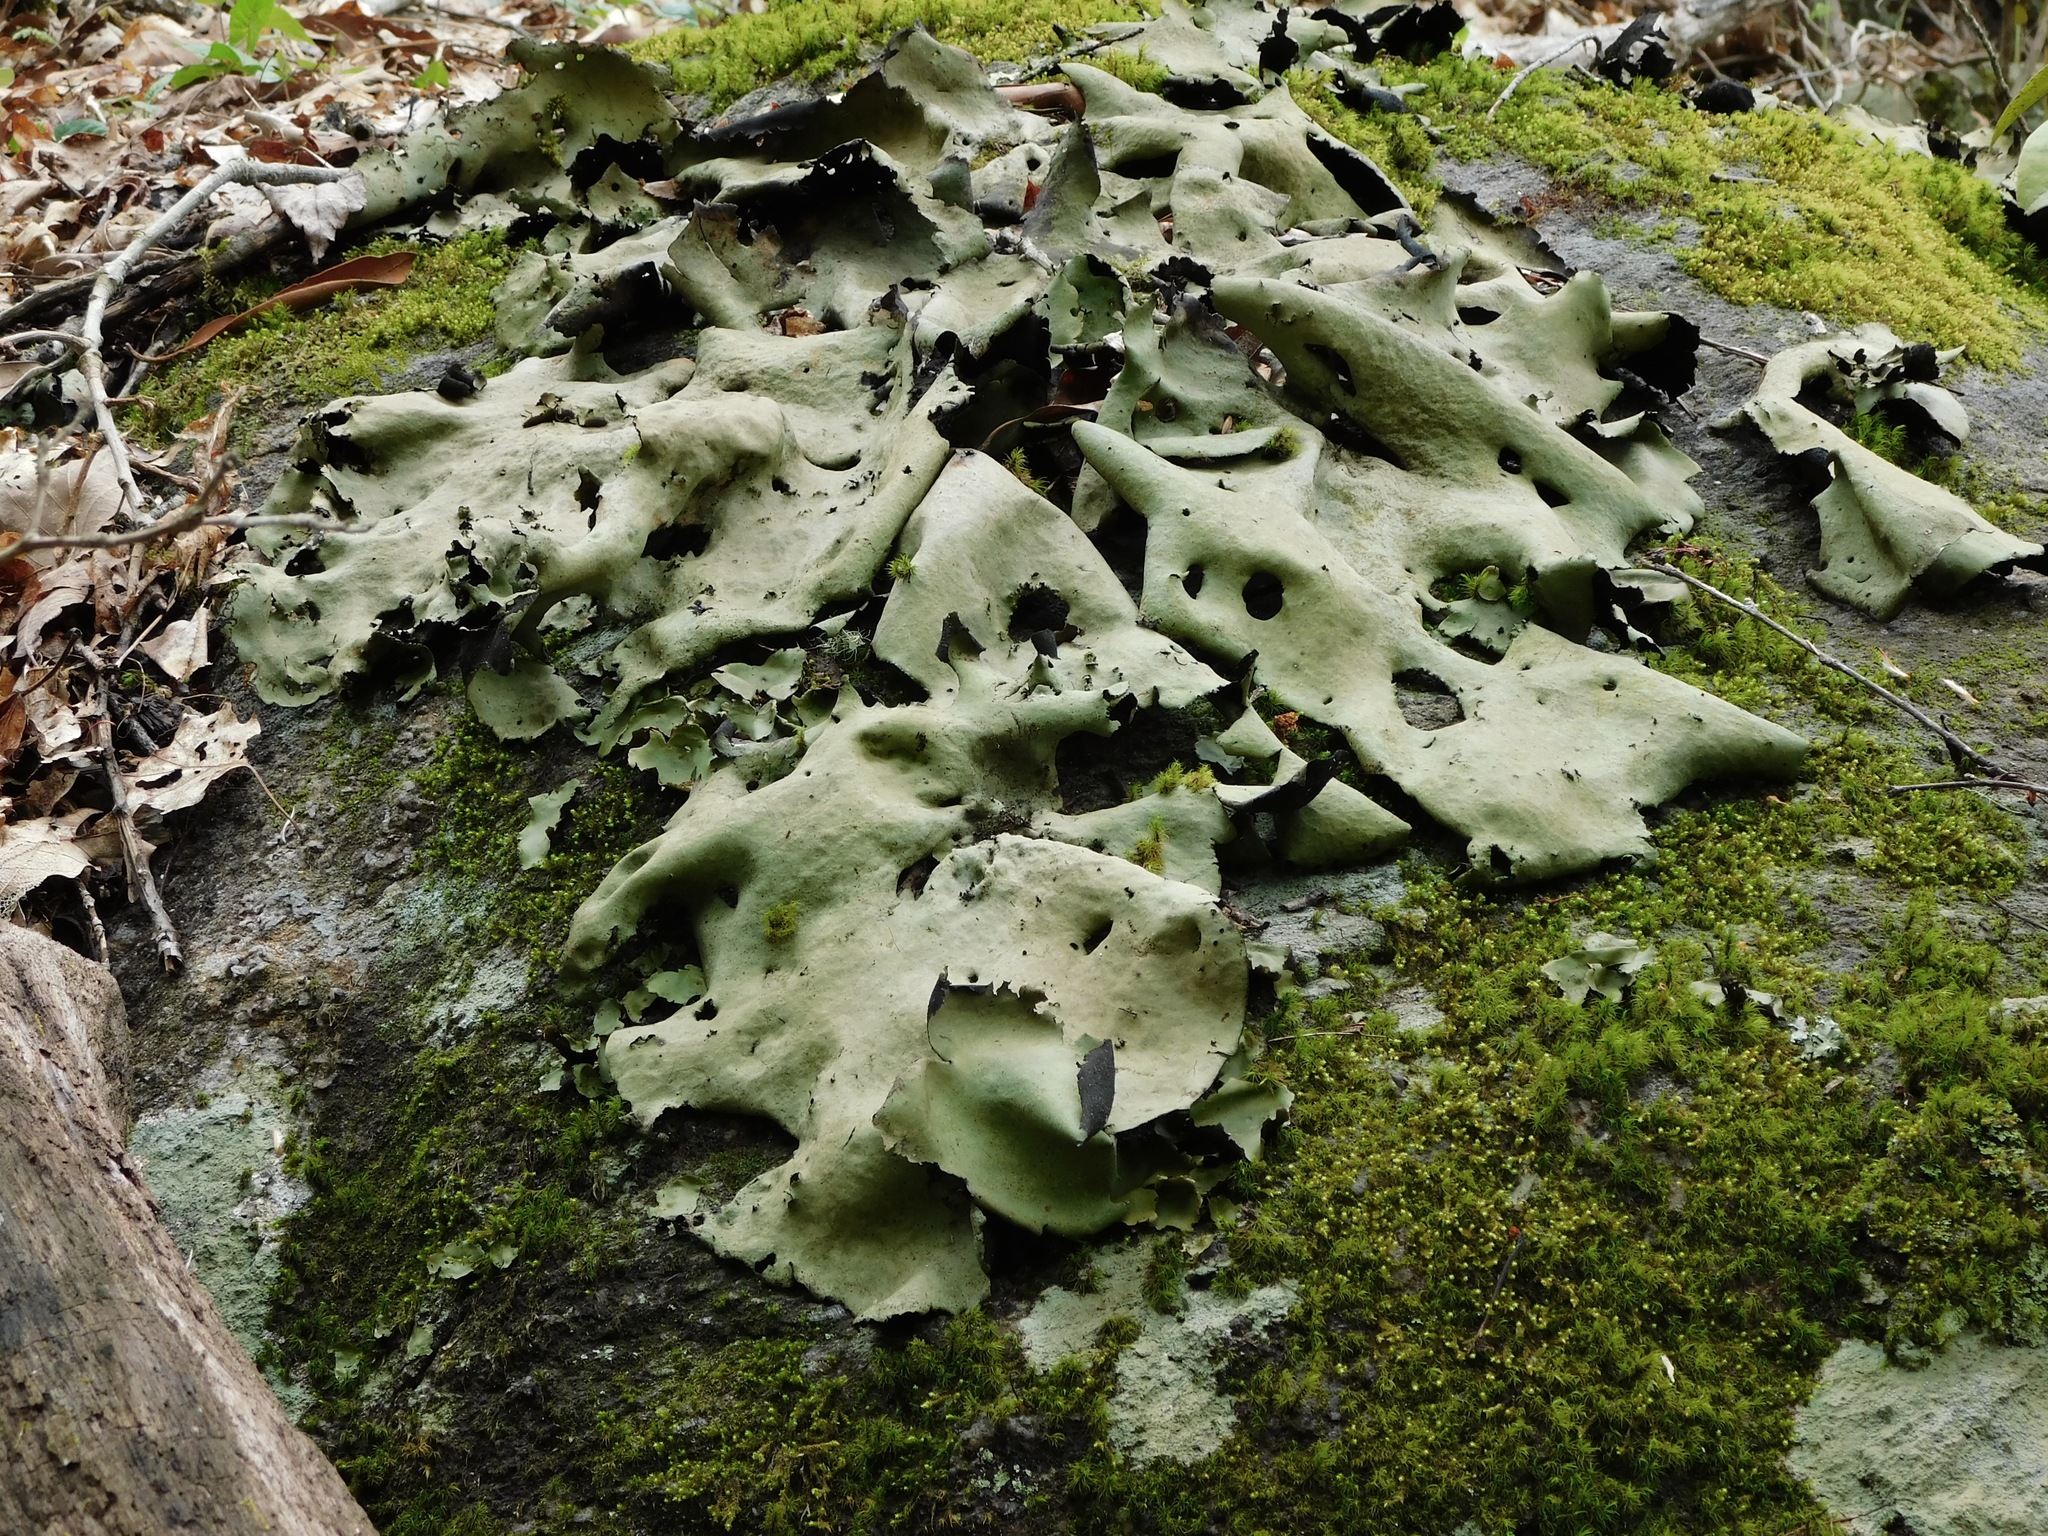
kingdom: Fungi
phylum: Ascomycota
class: Lecanoromycetes
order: Umbilicariales
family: Umbilicariaceae
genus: Umbilicaria
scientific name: Umbilicaria mammulata
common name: Smooth rock tripe
